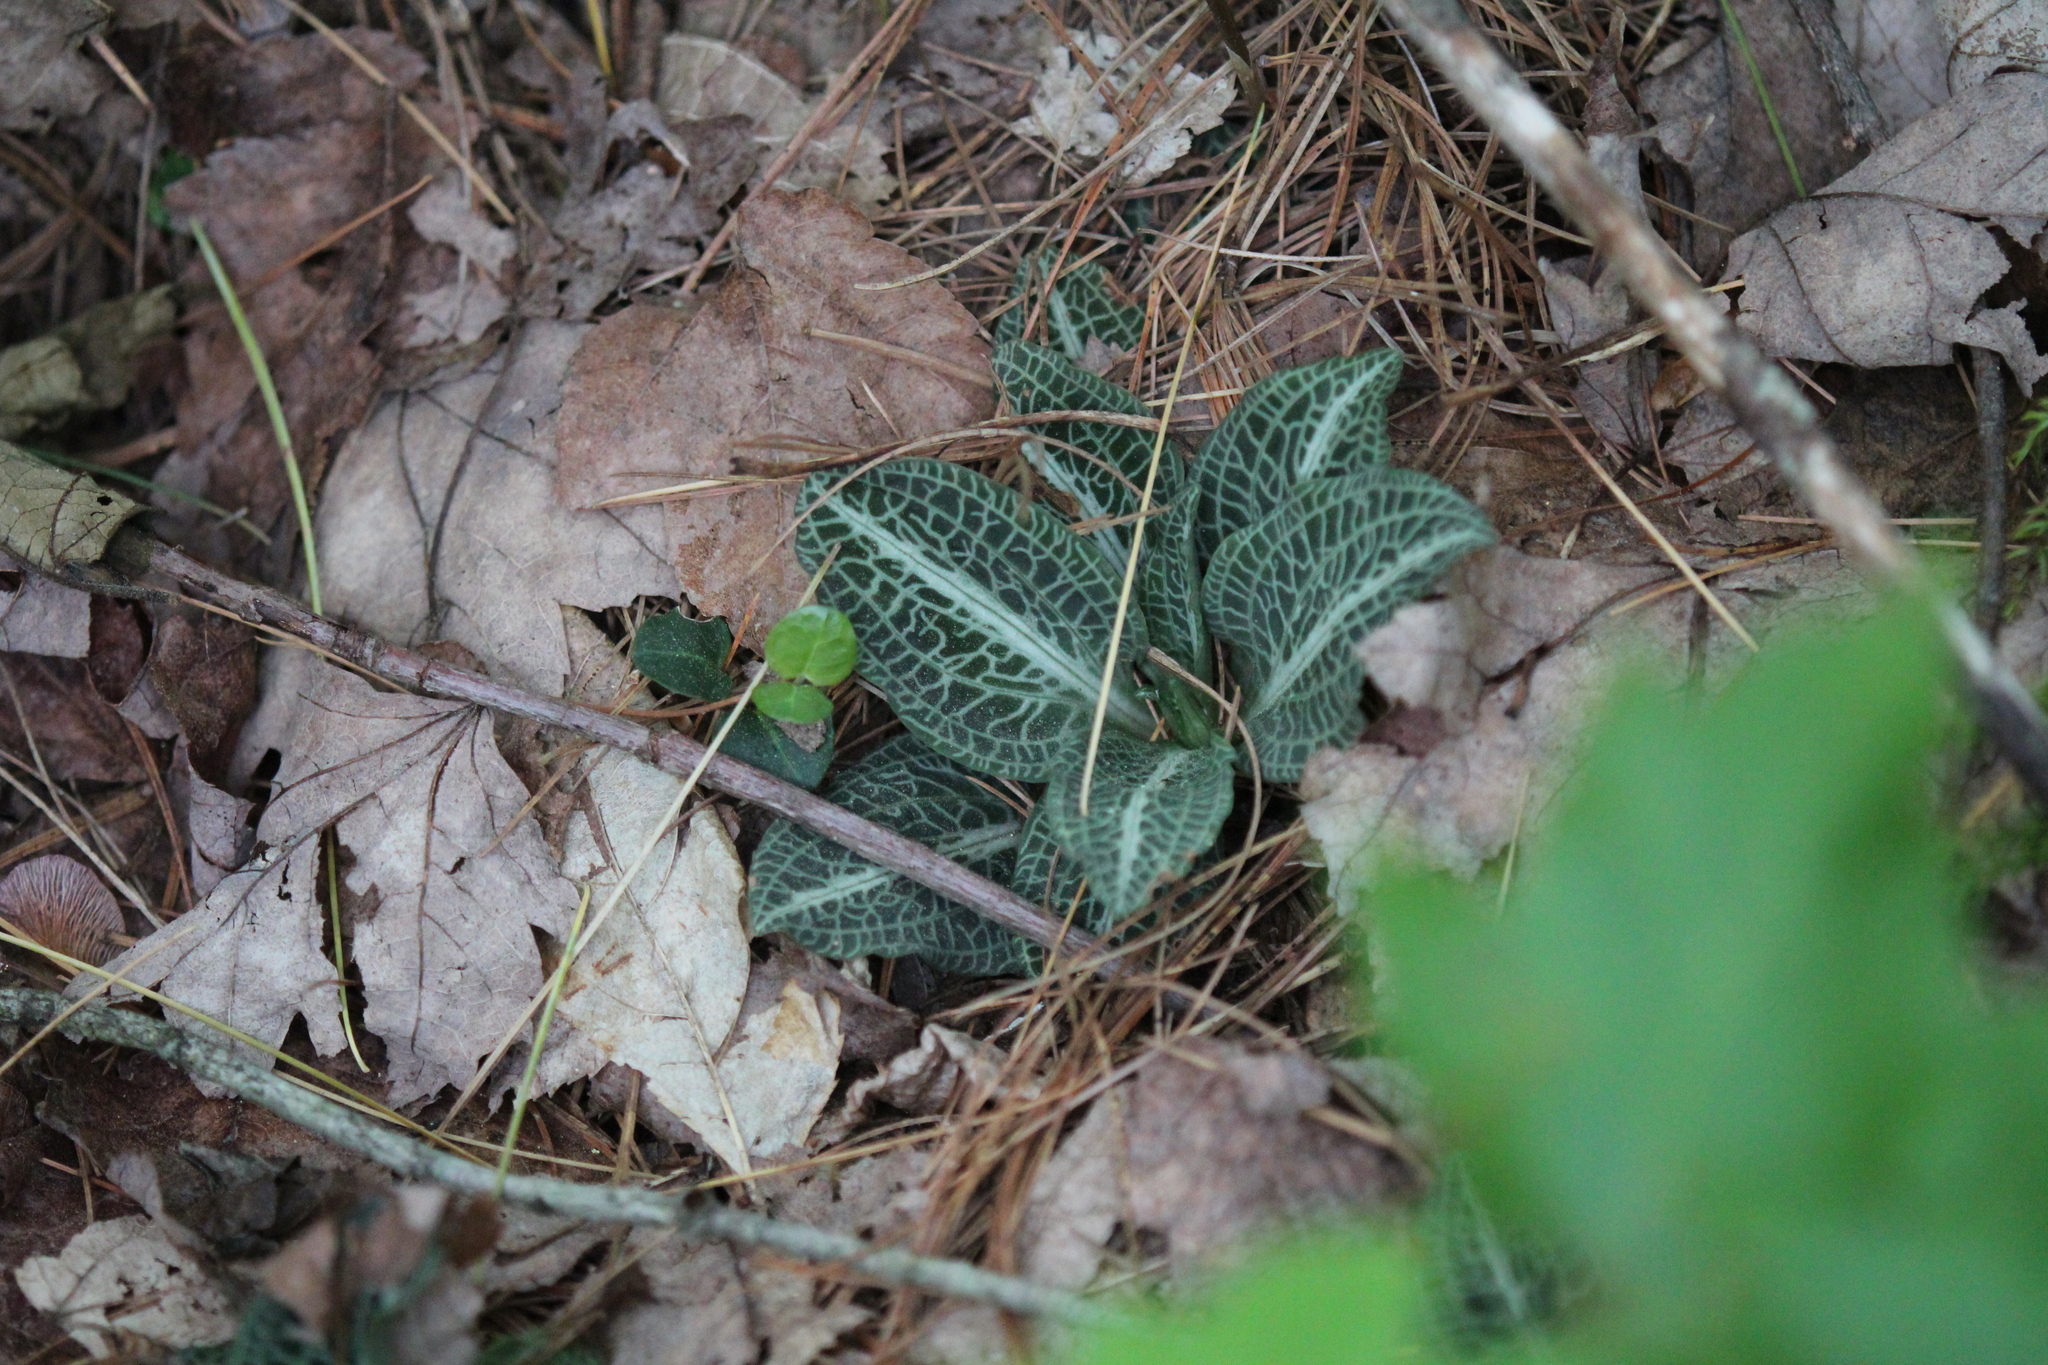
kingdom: Plantae
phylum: Tracheophyta
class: Liliopsida
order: Asparagales
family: Orchidaceae
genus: Goodyera
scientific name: Goodyera pubescens
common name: Downy rattlesnake-plantain
